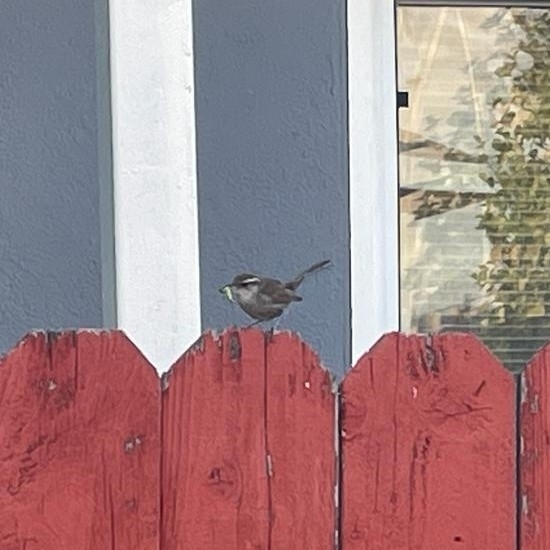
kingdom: Animalia
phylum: Chordata
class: Aves
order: Passeriformes
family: Troglodytidae
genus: Thryomanes
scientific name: Thryomanes bewickii
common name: Bewick's wren
